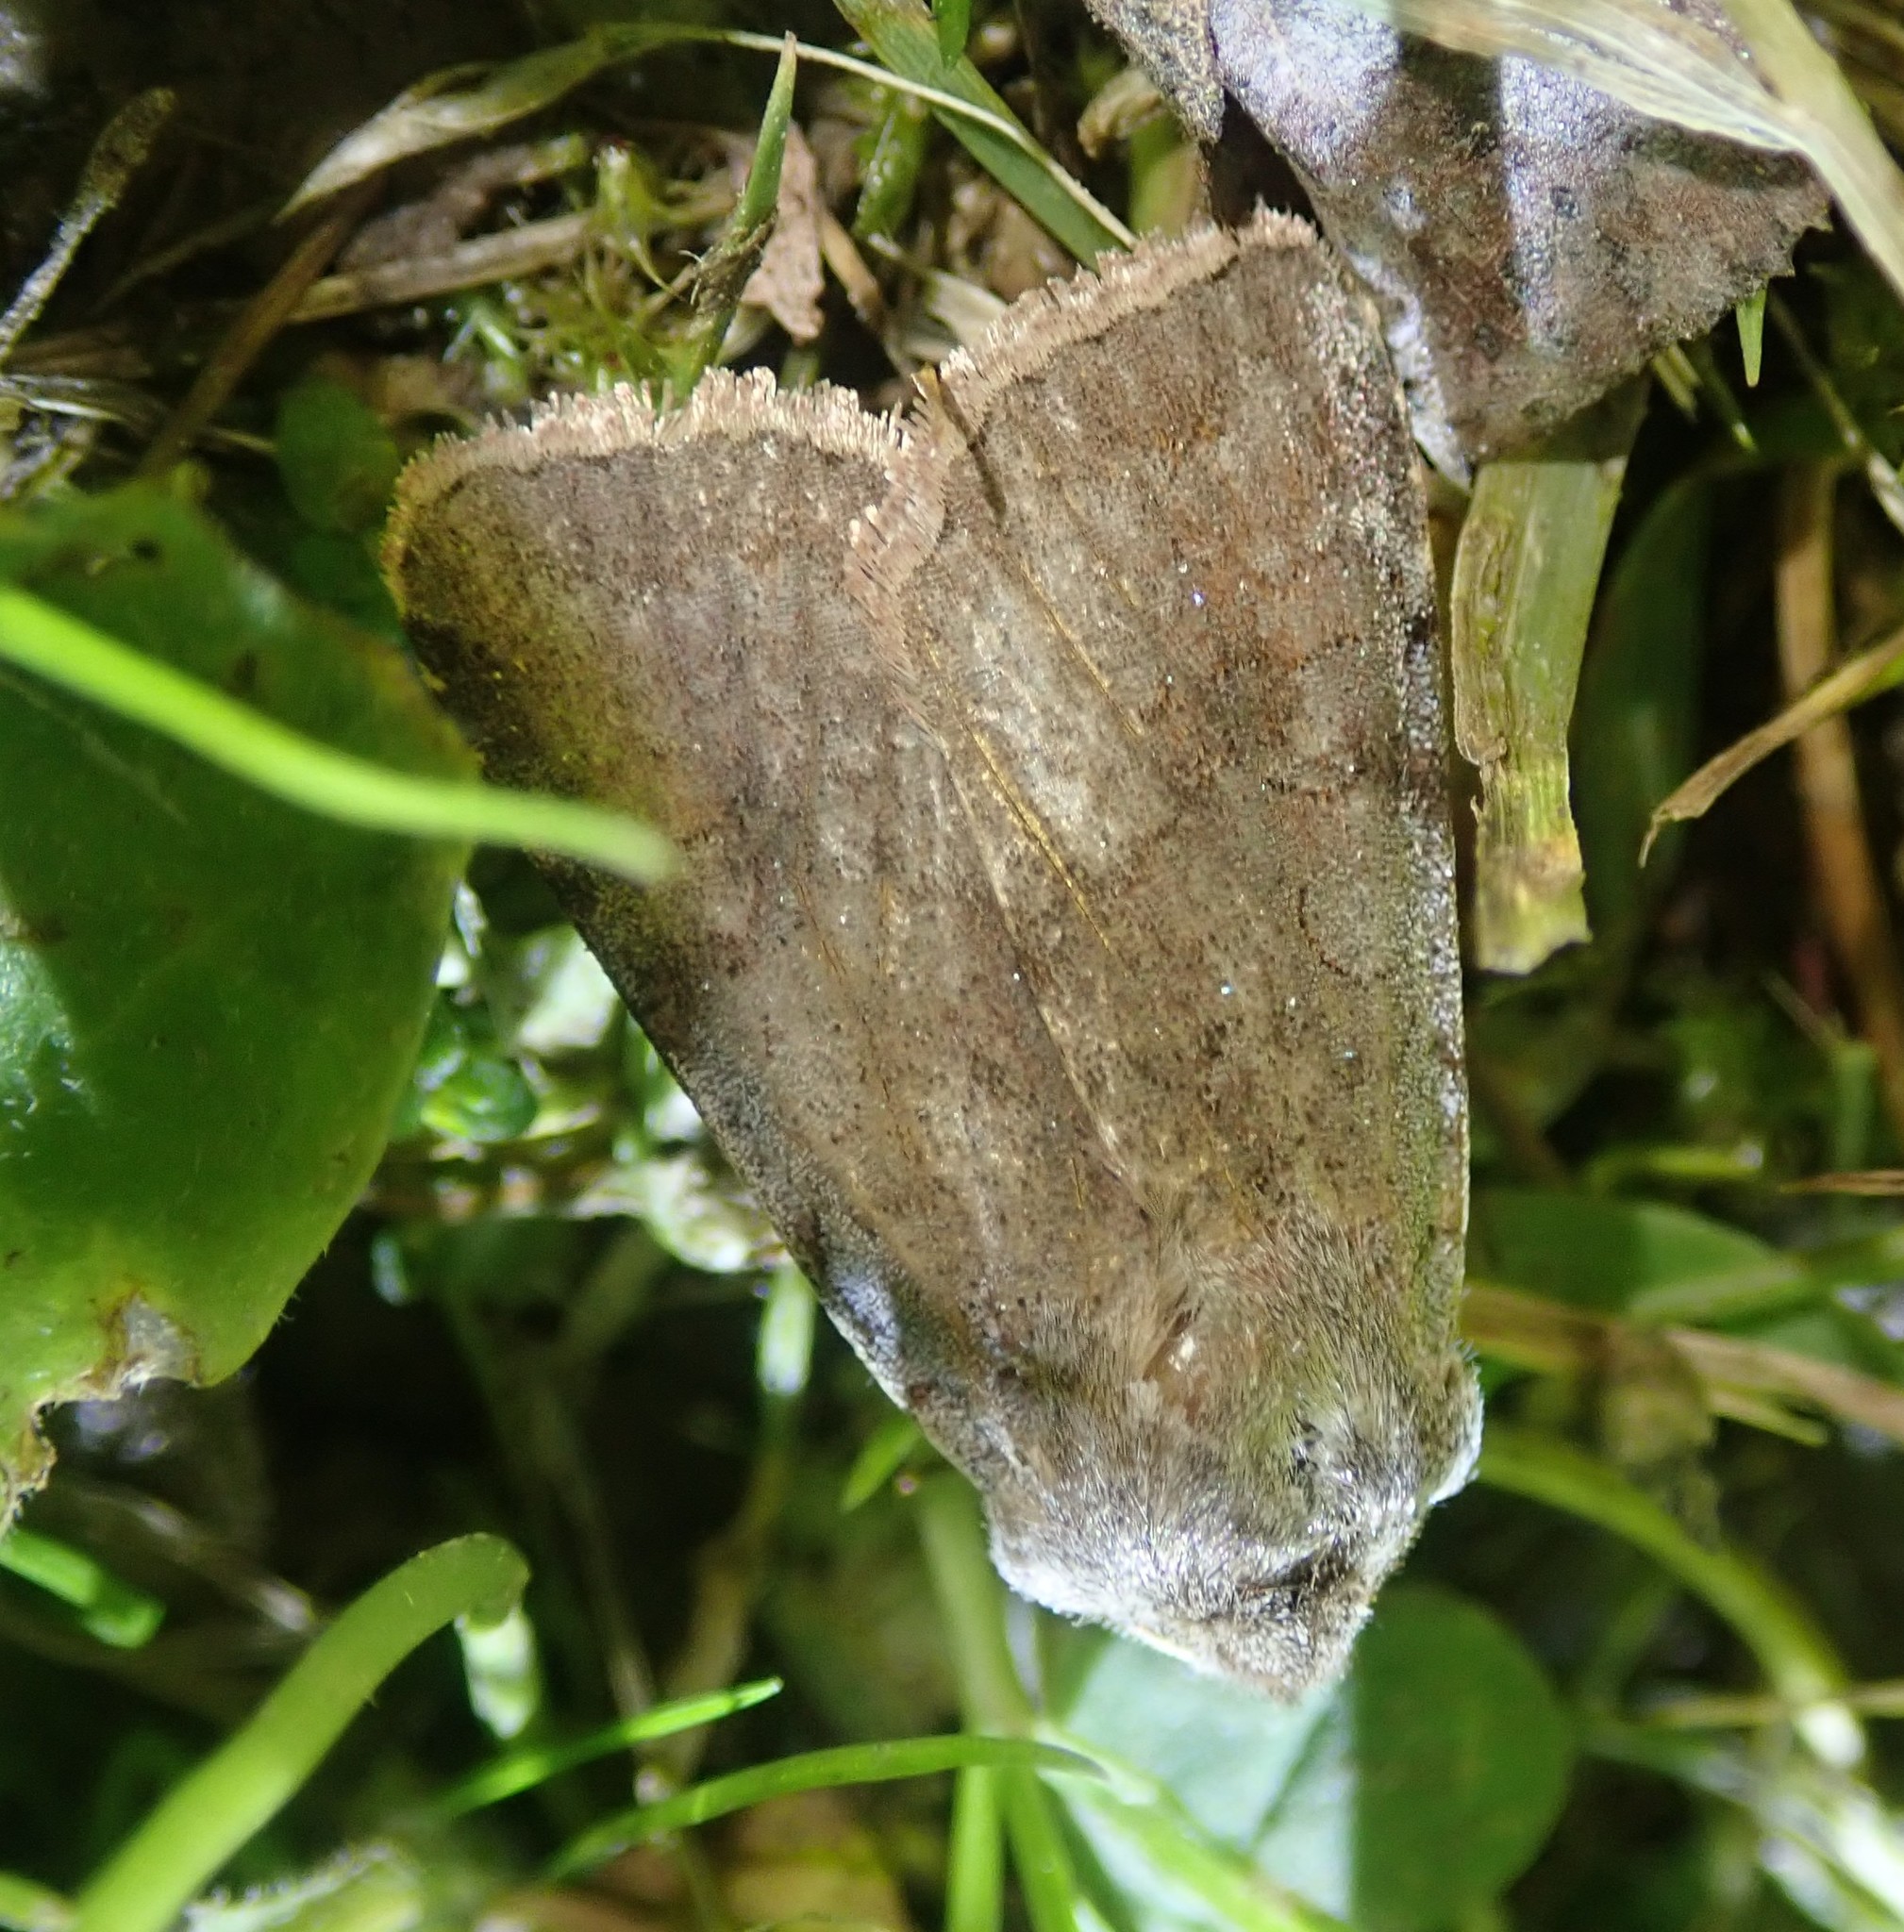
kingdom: Animalia
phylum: Arthropoda
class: Insecta
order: Lepidoptera
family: Noctuidae
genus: Cerastis
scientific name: Cerastis rubricosa
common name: Red chestnut
